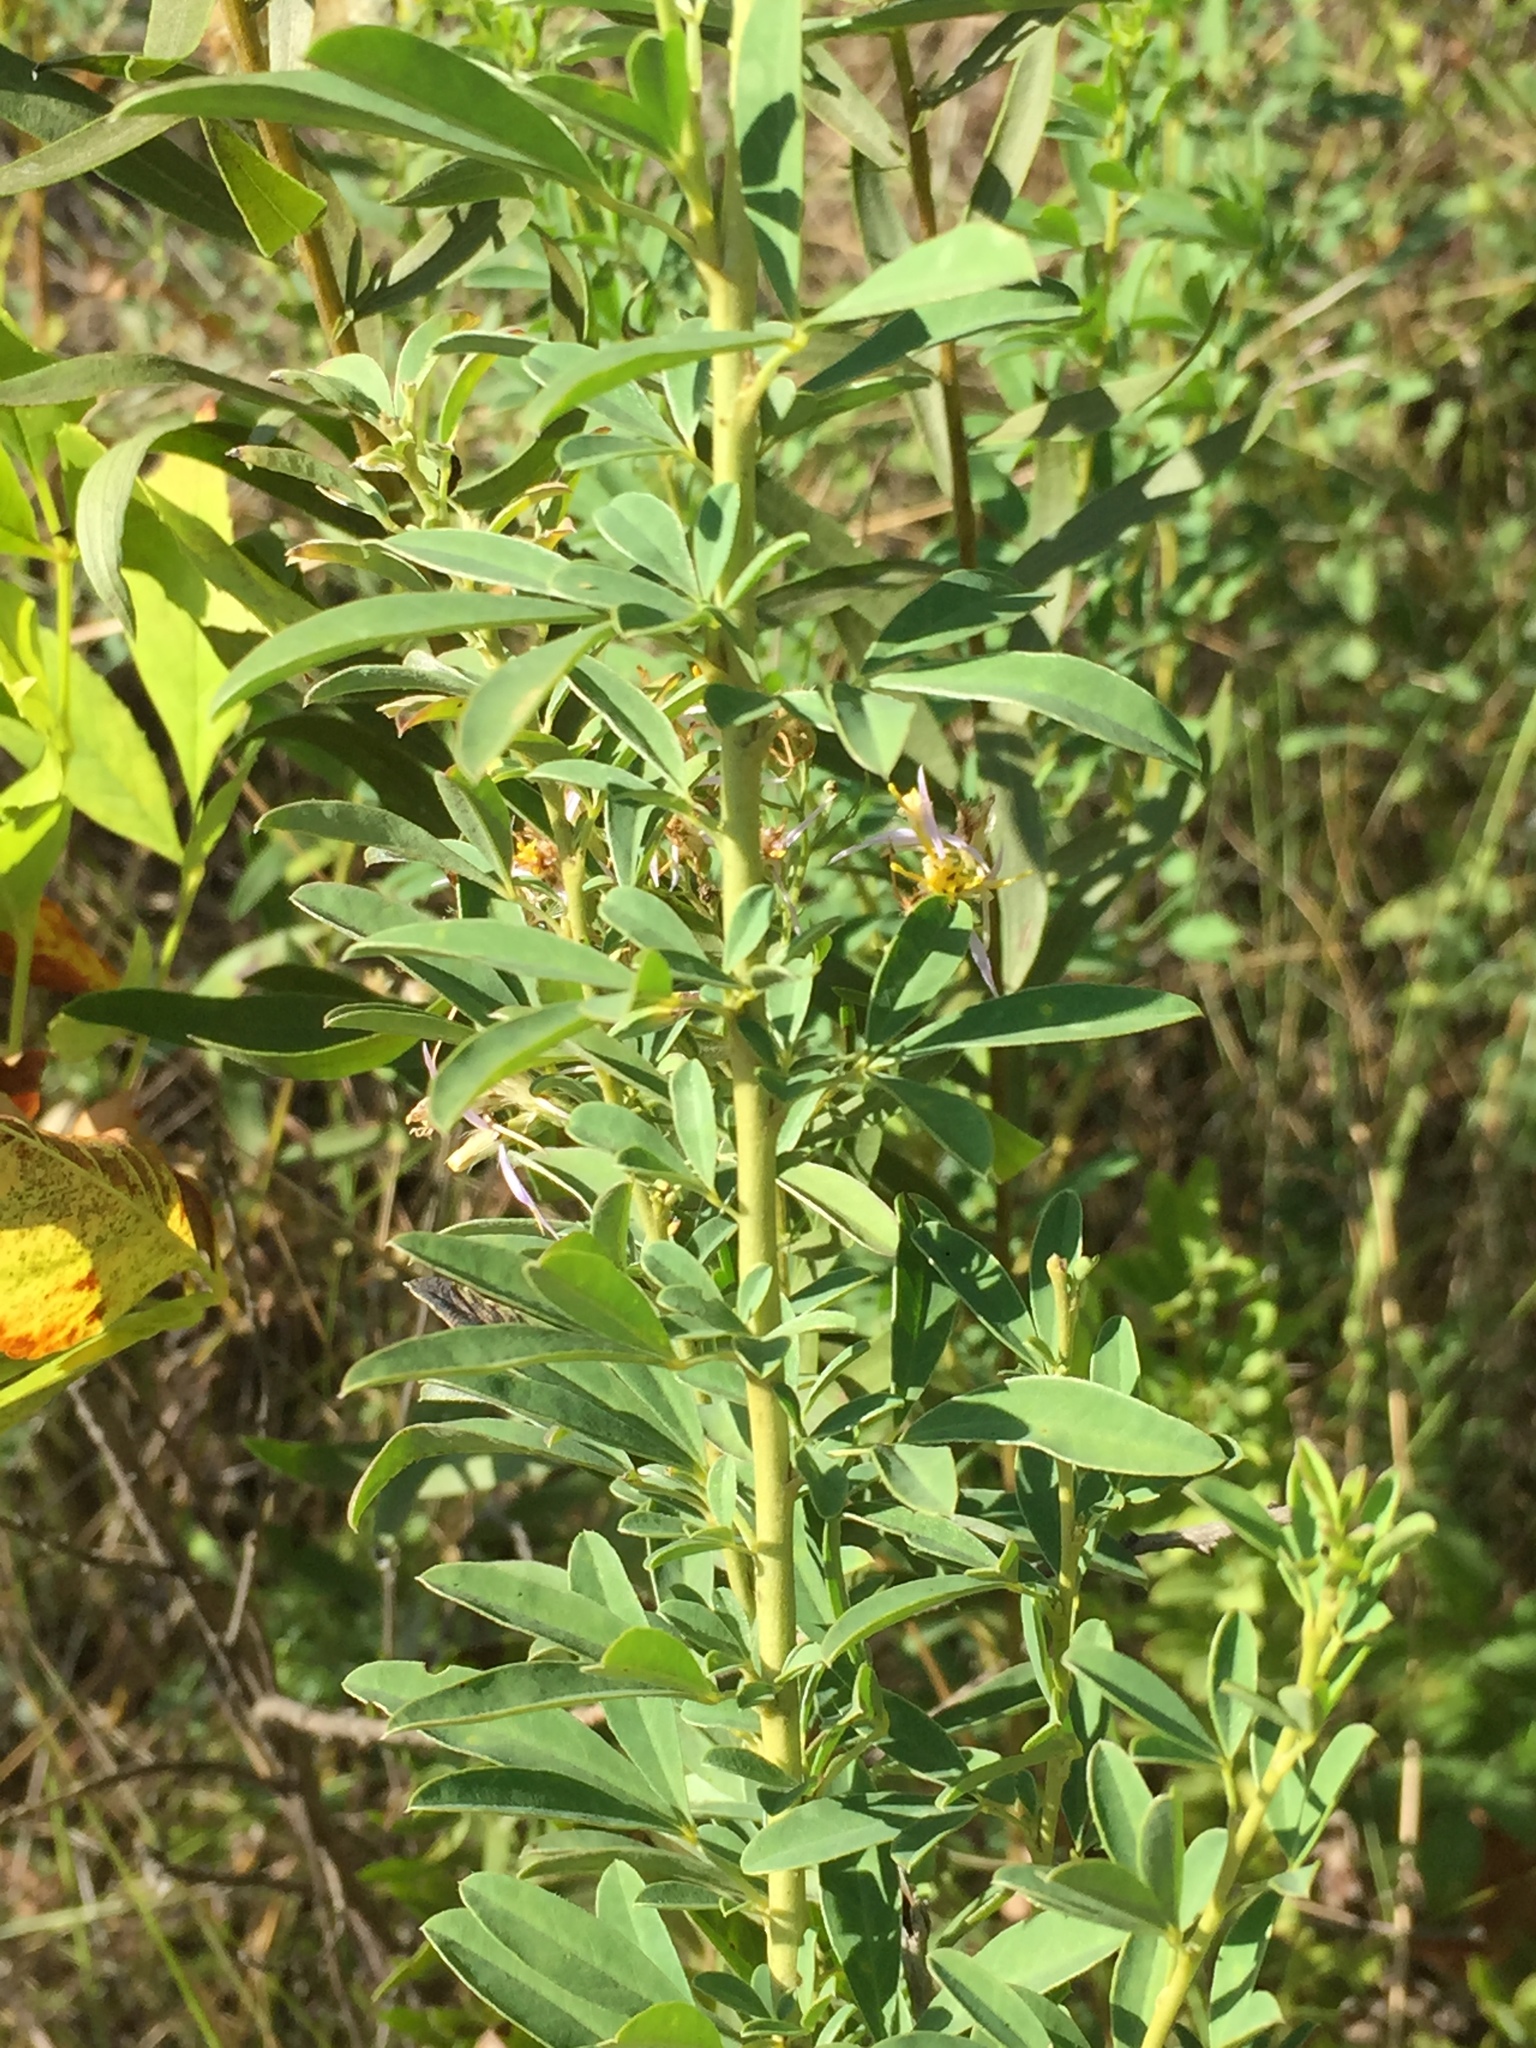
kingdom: Plantae
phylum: Tracheophyta
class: Magnoliopsida
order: Fabales
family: Fabaceae
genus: Chamaecytisus
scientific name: Chamaecytisus ruthenicus
